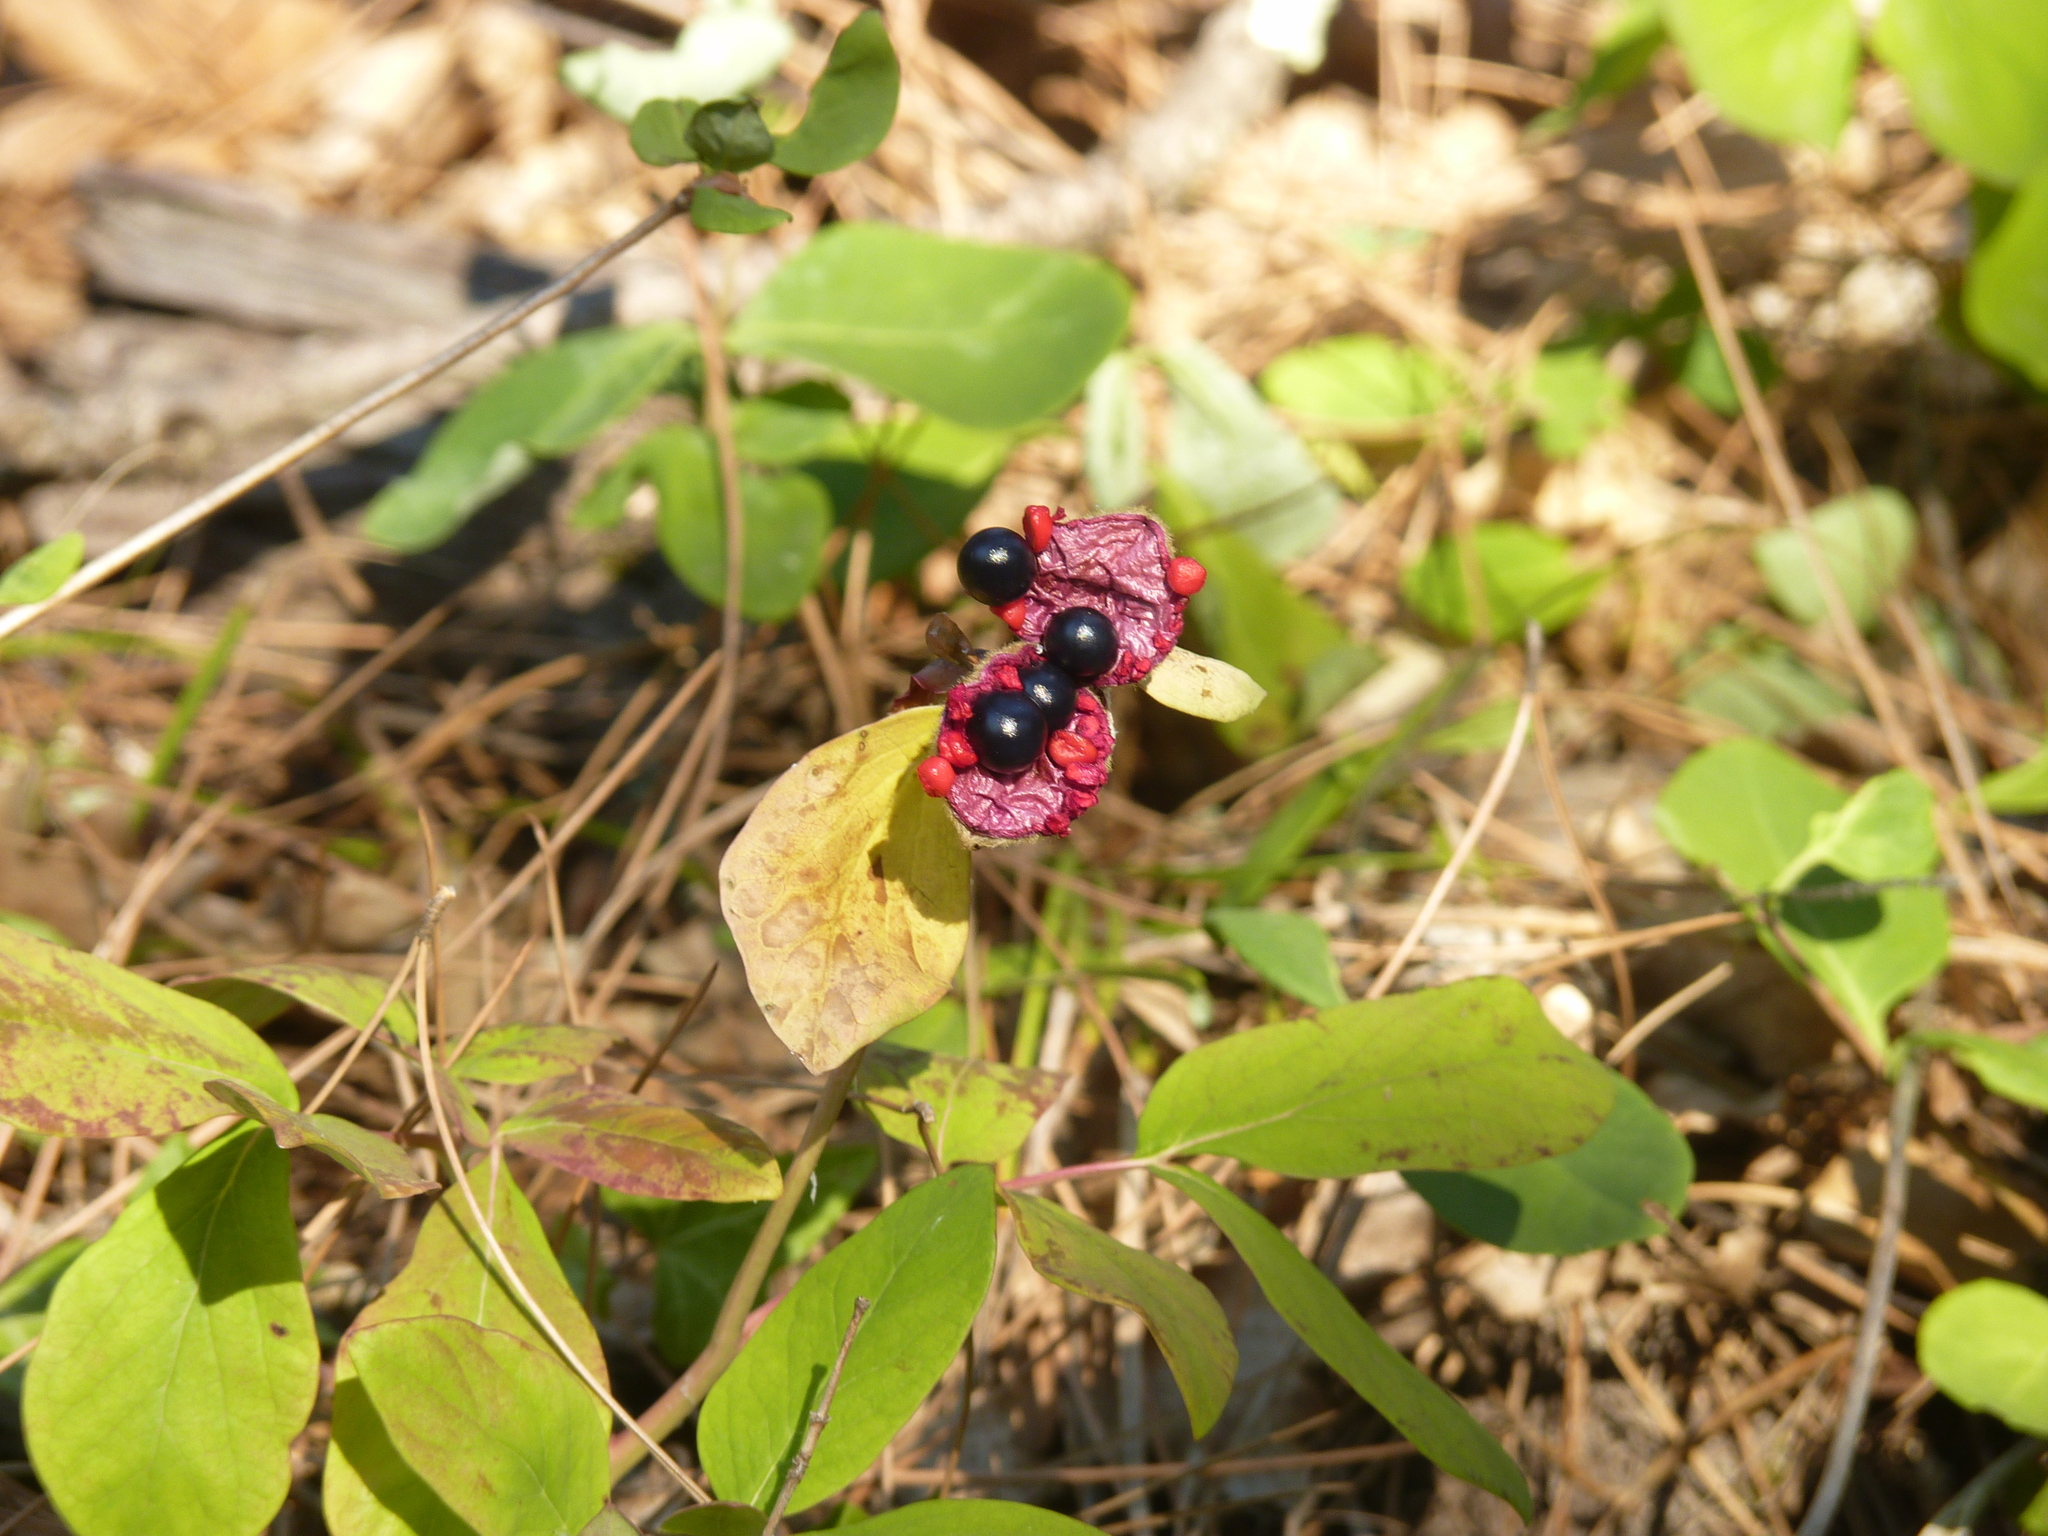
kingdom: Plantae
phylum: Tracheophyta
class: Magnoliopsida
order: Saxifragales
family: Paeoniaceae
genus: Paeonia
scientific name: Paeonia caucasica
